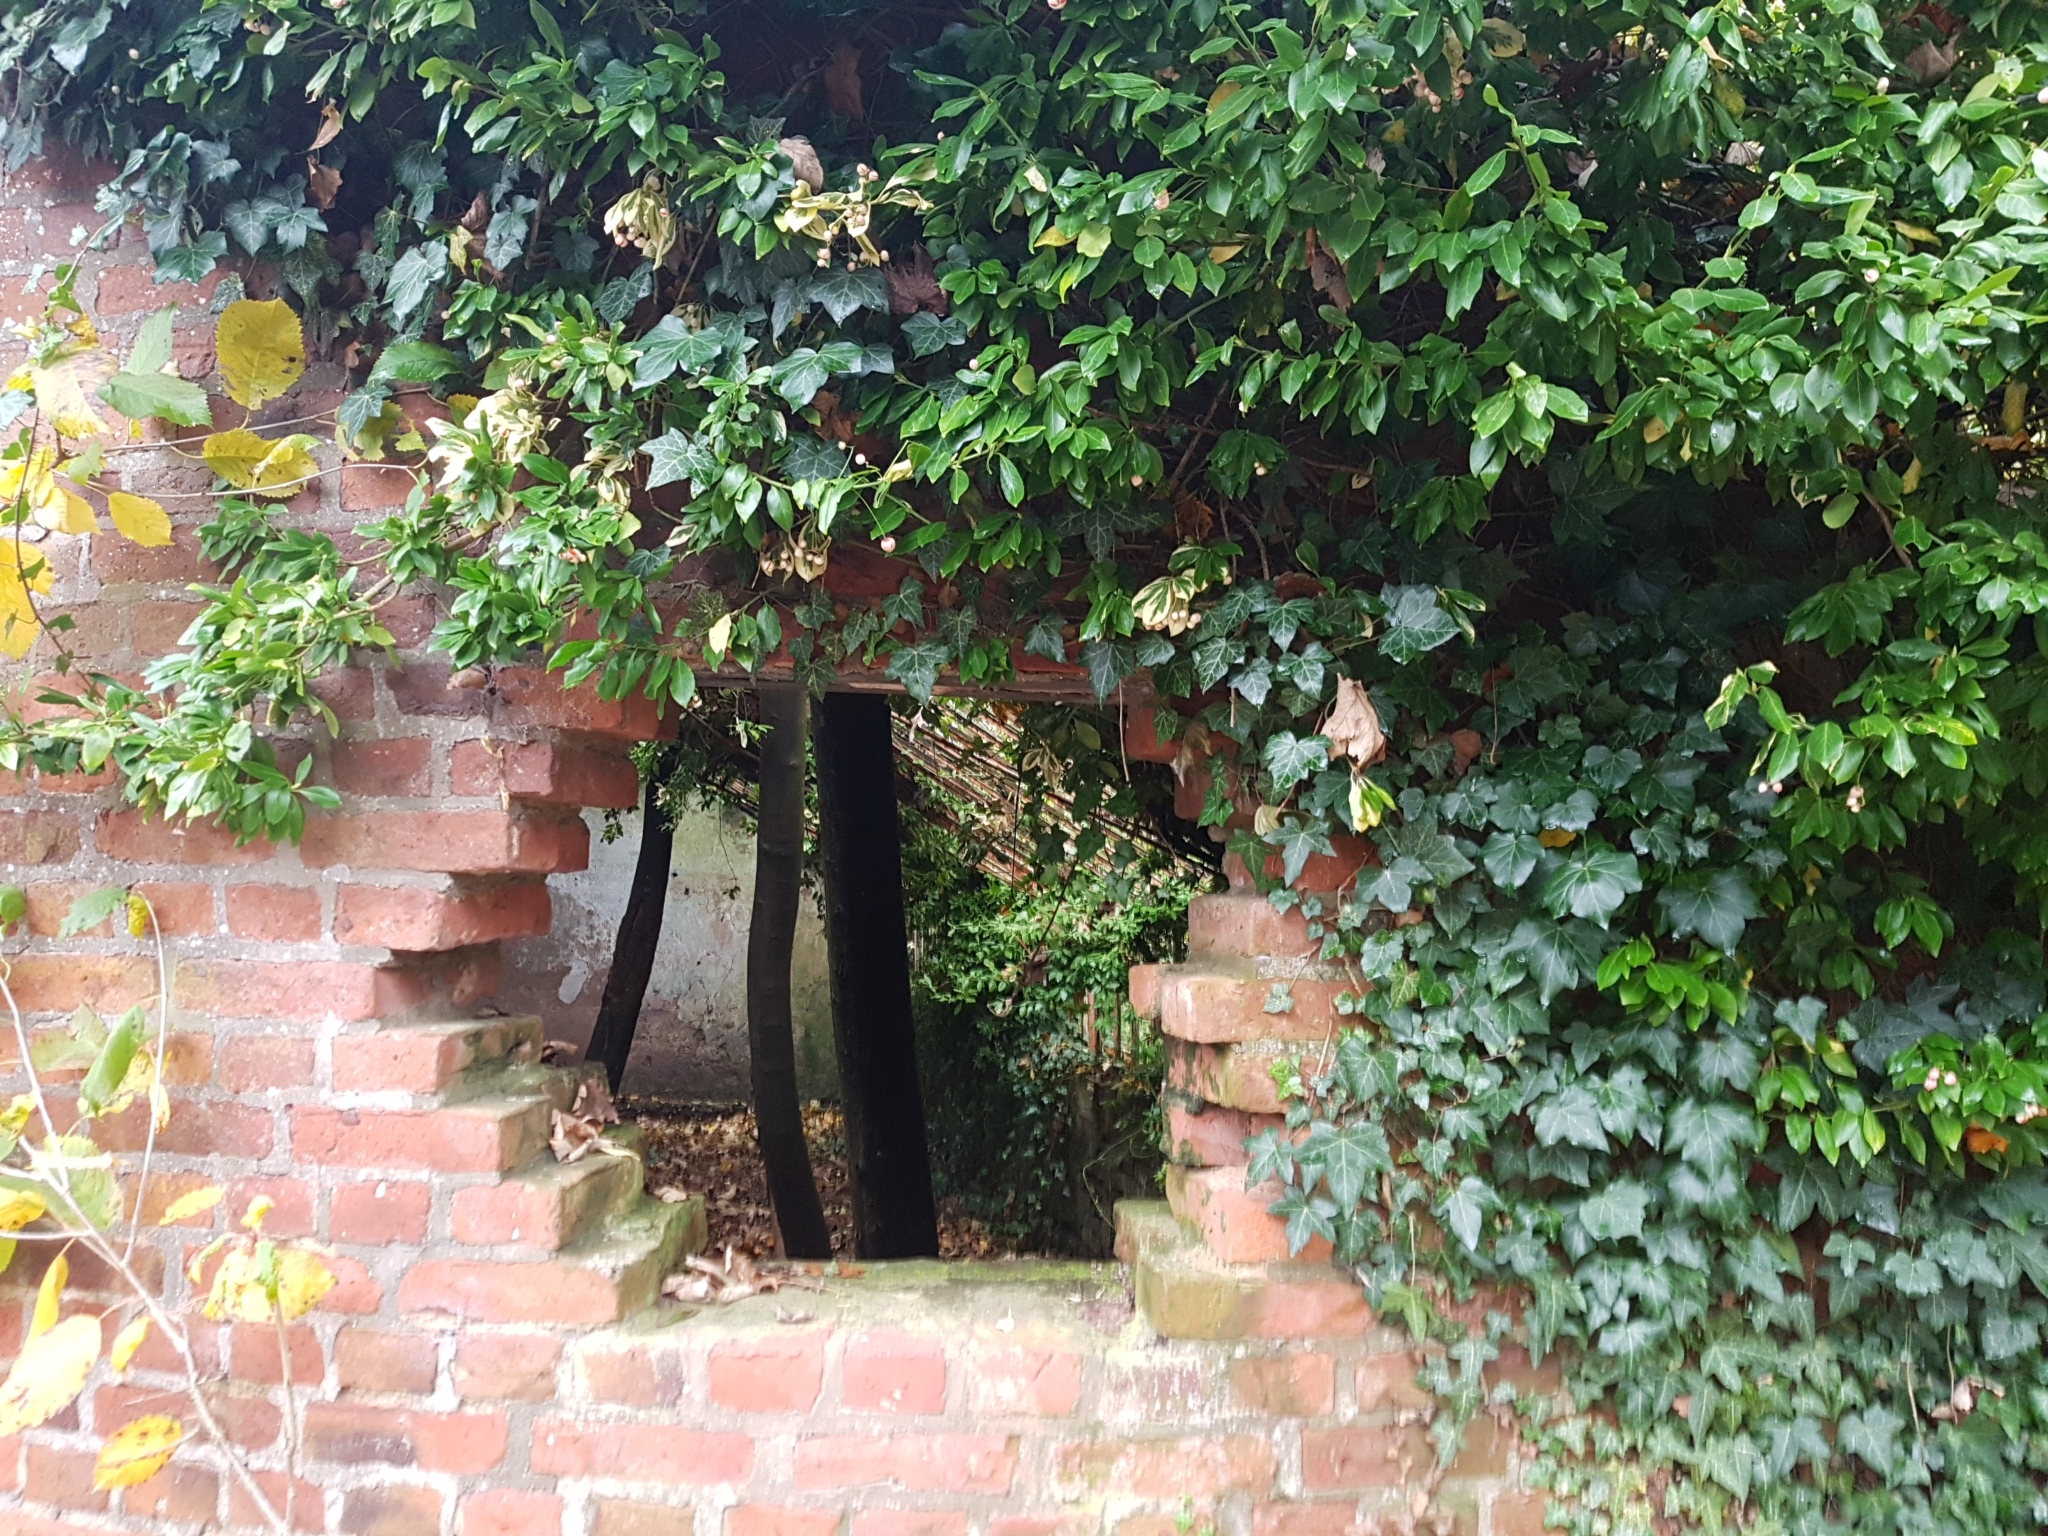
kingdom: Plantae
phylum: Tracheophyta
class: Magnoliopsida
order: Apiales
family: Araliaceae
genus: Hedera
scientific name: Hedera helix
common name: Ivy
